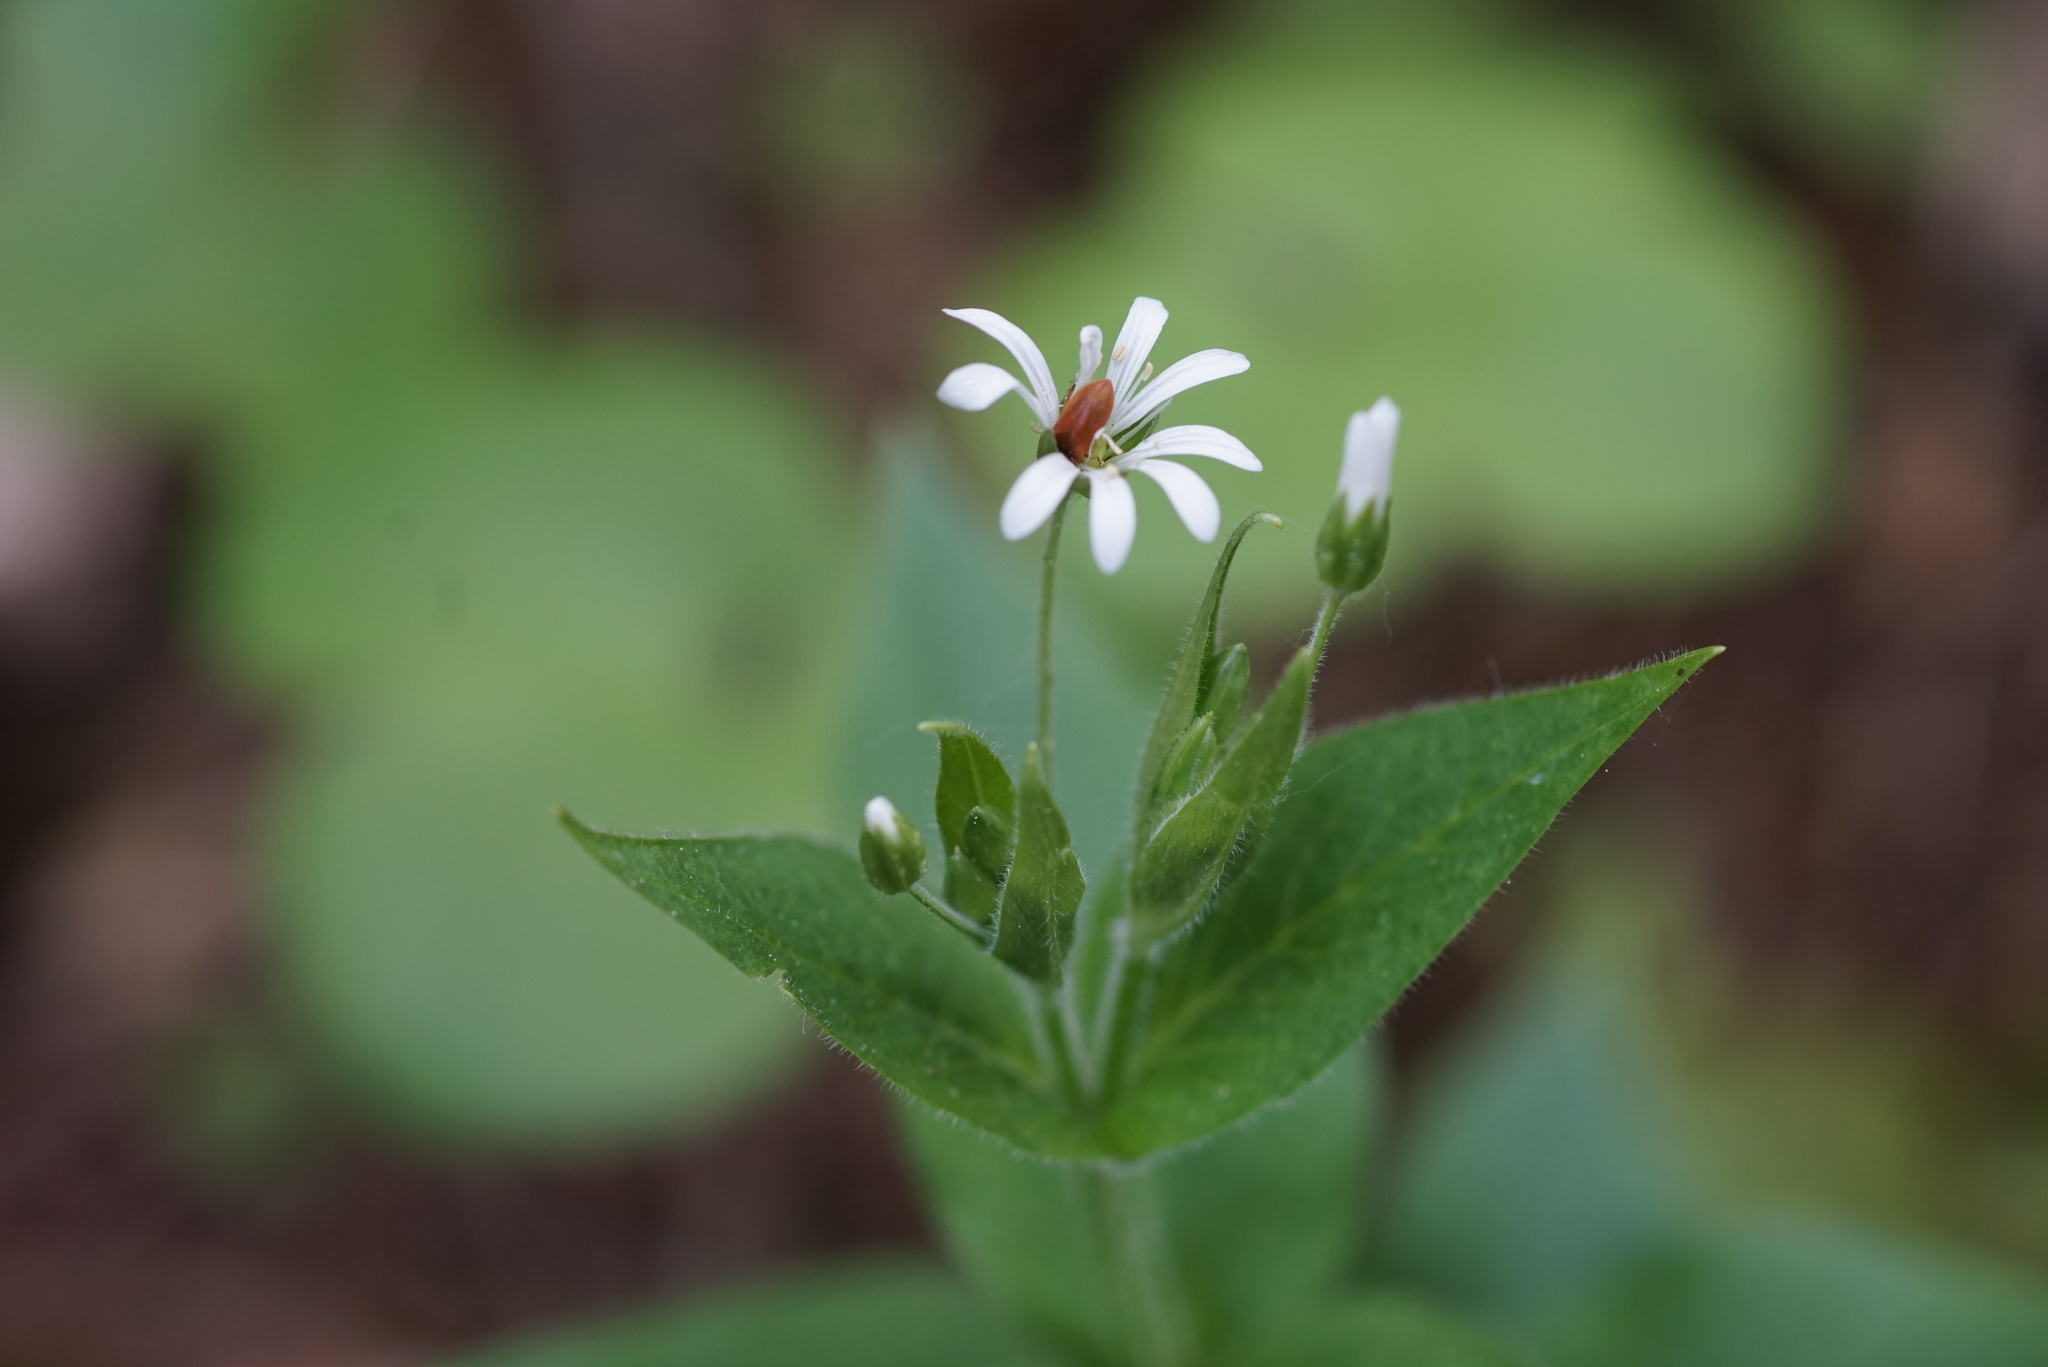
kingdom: Plantae
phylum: Tracheophyta
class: Magnoliopsida
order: Caryophyllales
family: Caryophyllaceae
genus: Stellaria
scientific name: Stellaria nemorum
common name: Wood stitchwort
